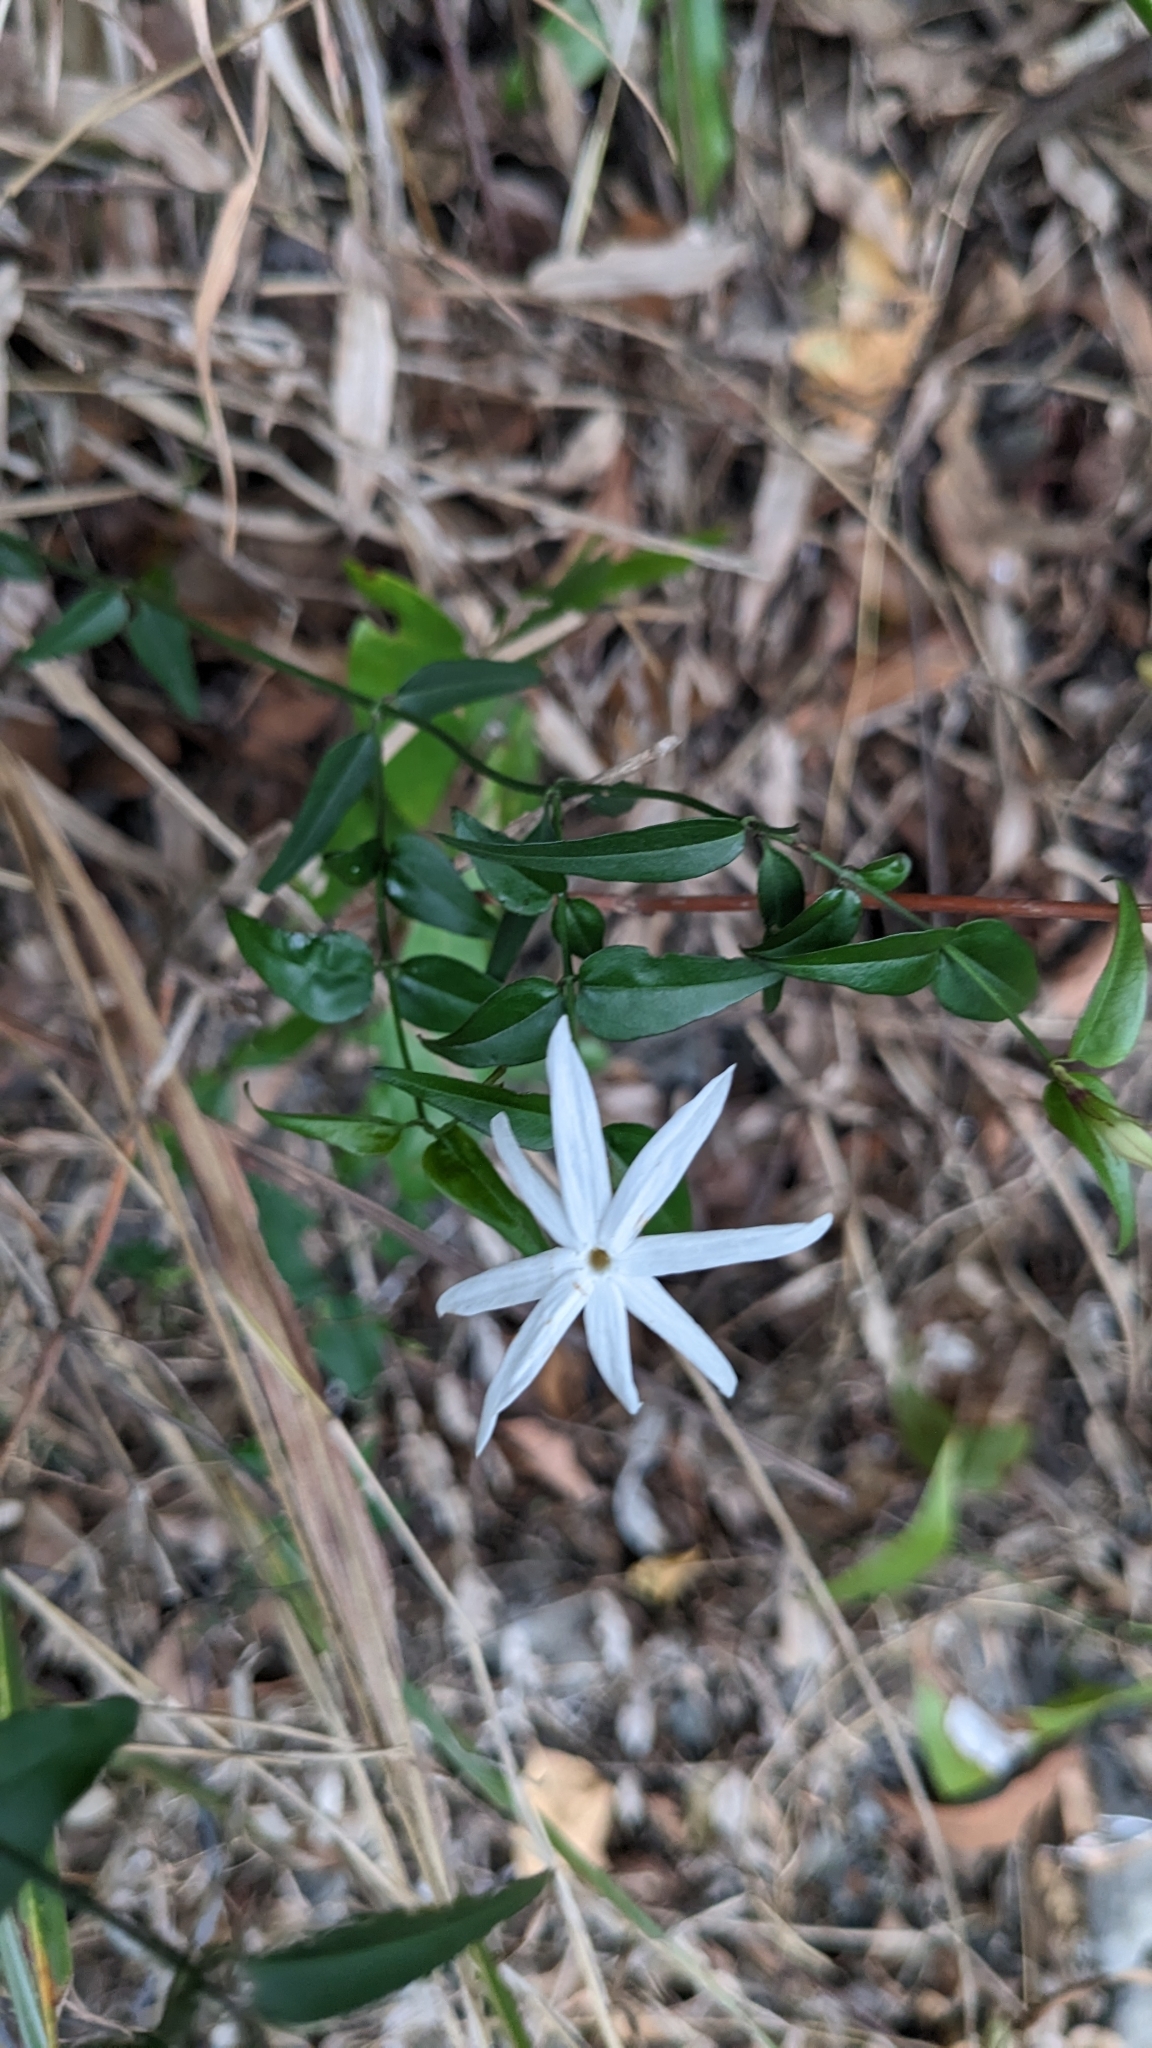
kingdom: Plantae
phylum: Tracheophyta
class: Magnoliopsida
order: Lamiales
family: Oleaceae
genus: Jasminum
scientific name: Jasminum nervosum
